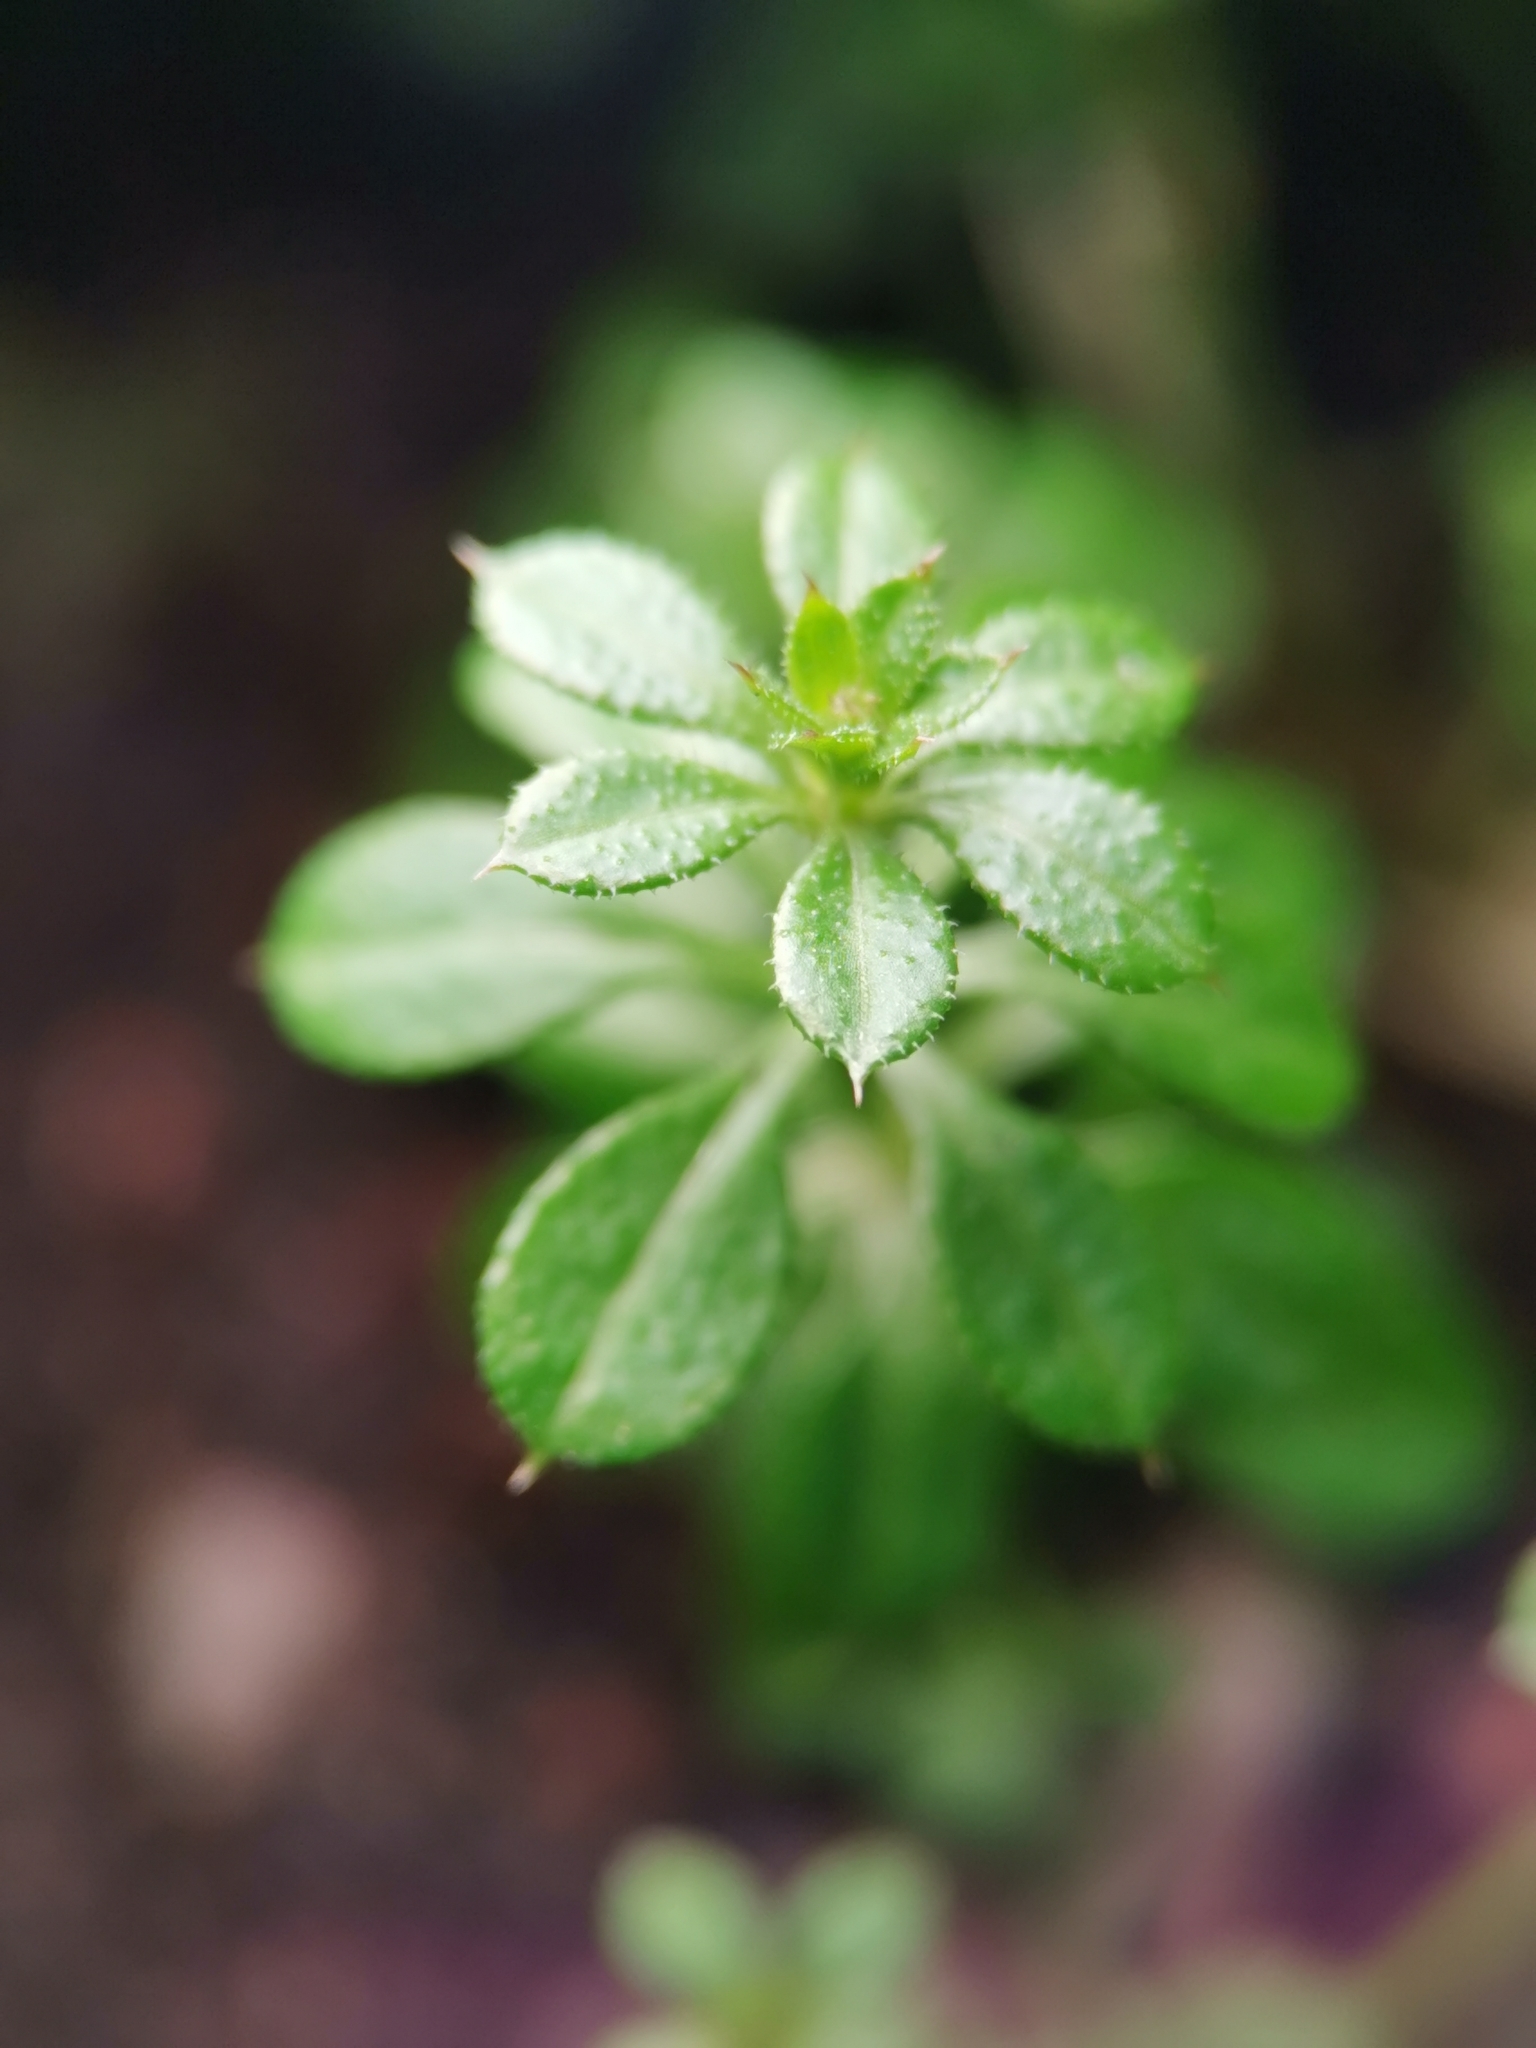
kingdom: Plantae
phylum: Tracheophyta
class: Magnoliopsida
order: Gentianales
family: Rubiaceae
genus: Galium
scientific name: Galium aparine
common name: Cleavers
